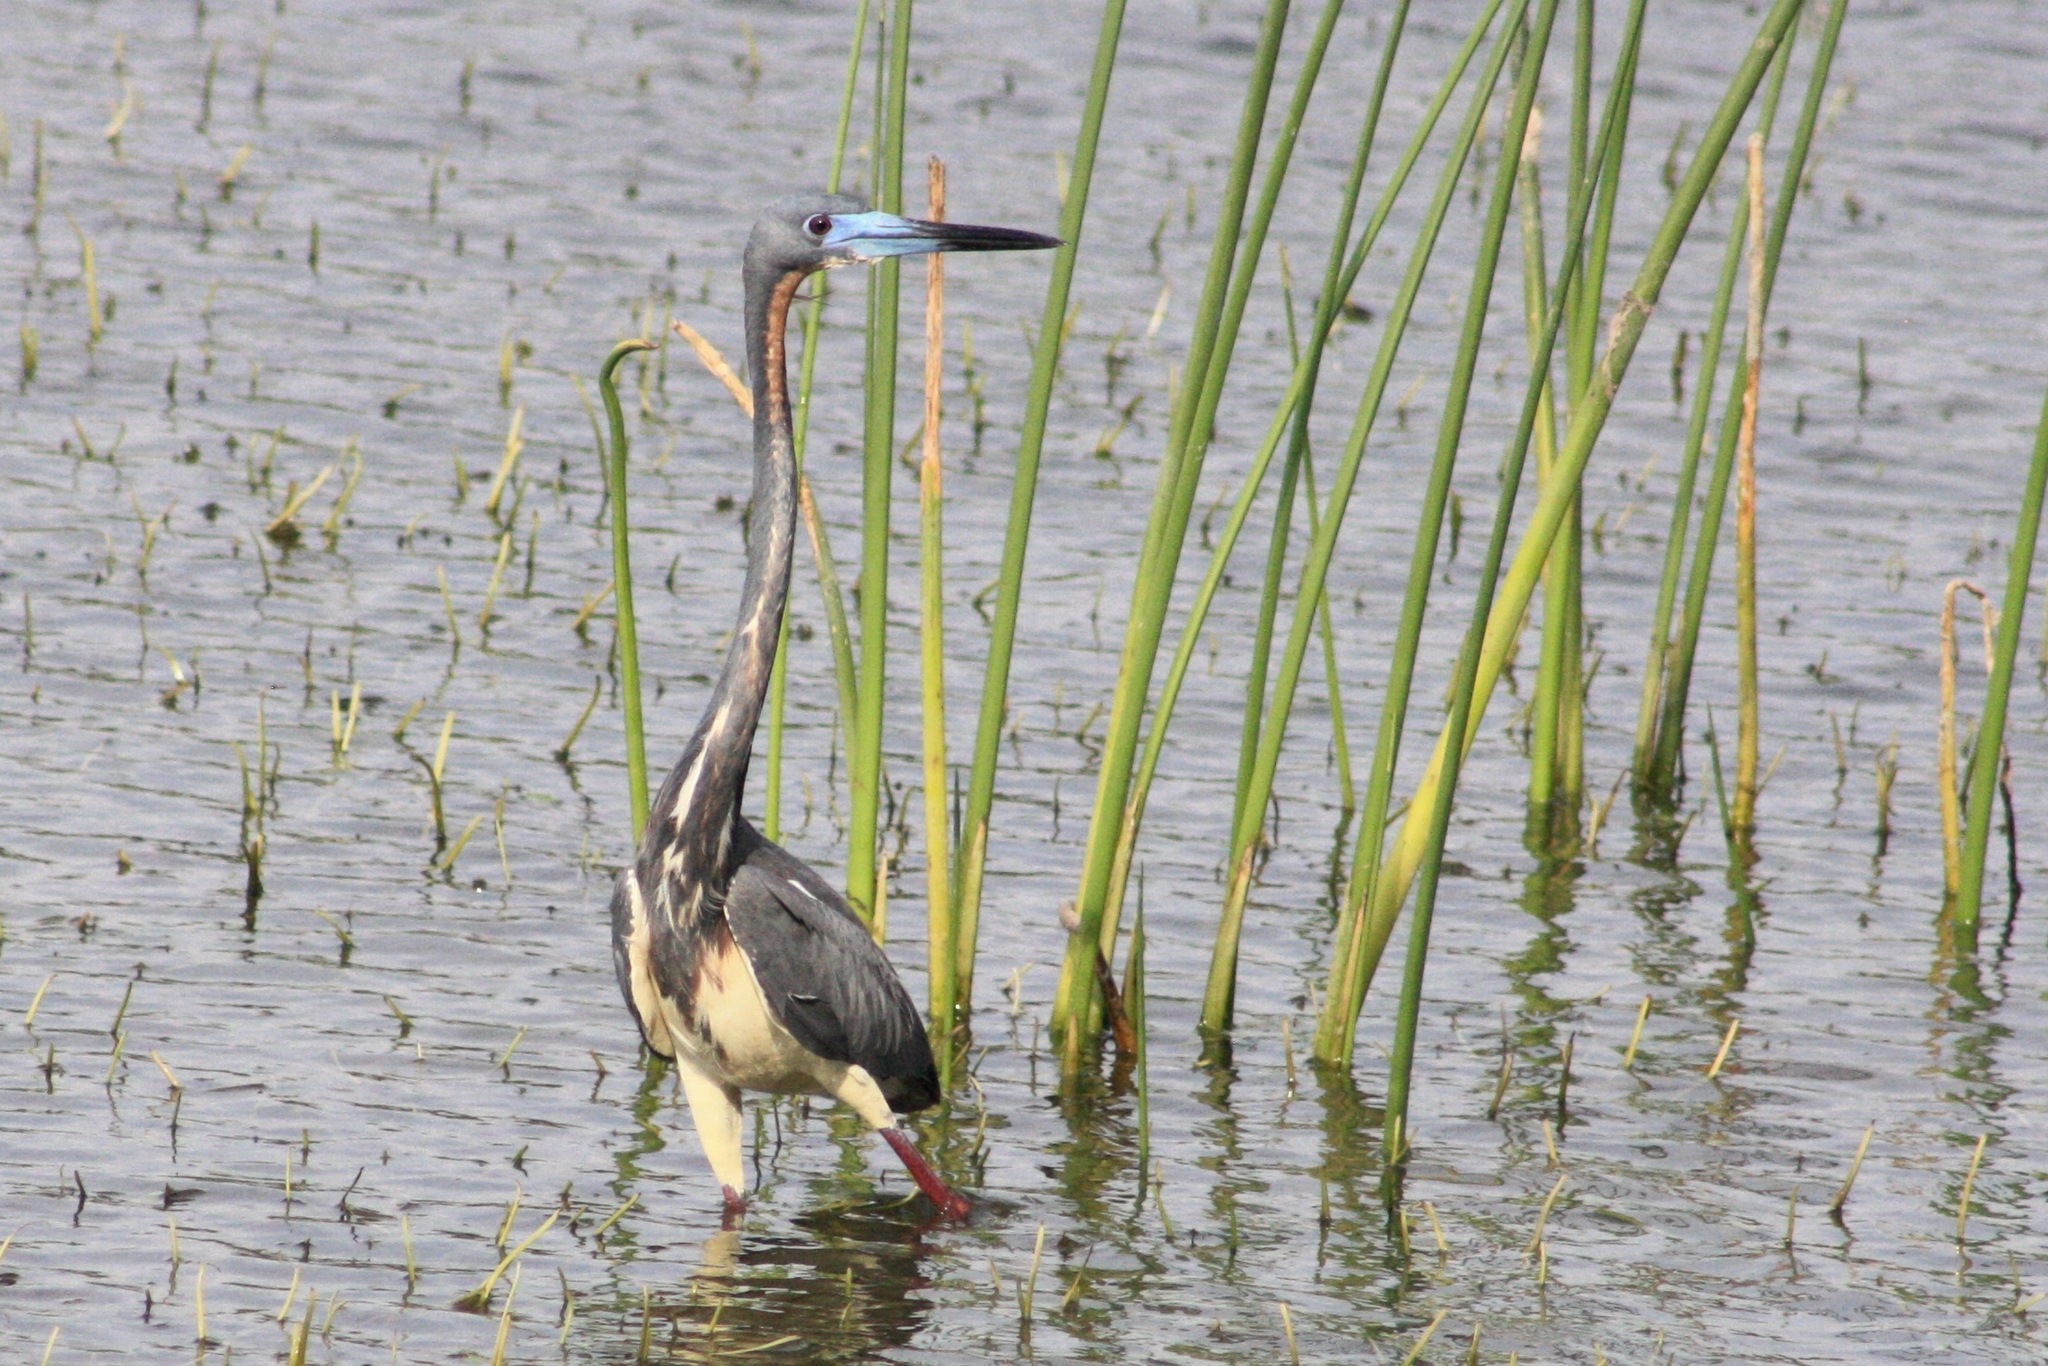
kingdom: Animalia
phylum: Chordata
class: Aves
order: Pelecaniformes
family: Ardeidae
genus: Egretta
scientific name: Egretta tricolor
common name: Tricolored heron
